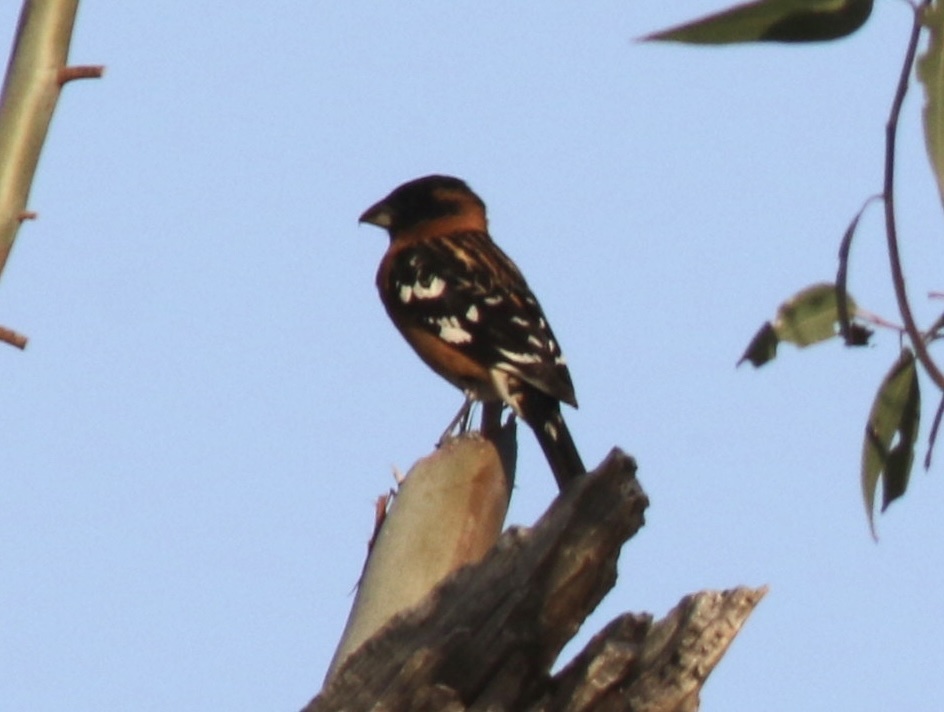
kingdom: Animalia
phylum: Chordata
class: Aves
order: Passeriformes
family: Cardinalidae
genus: Pheucticus
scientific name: Pheucticus melanocephalus
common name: Black-headed grosbeak
